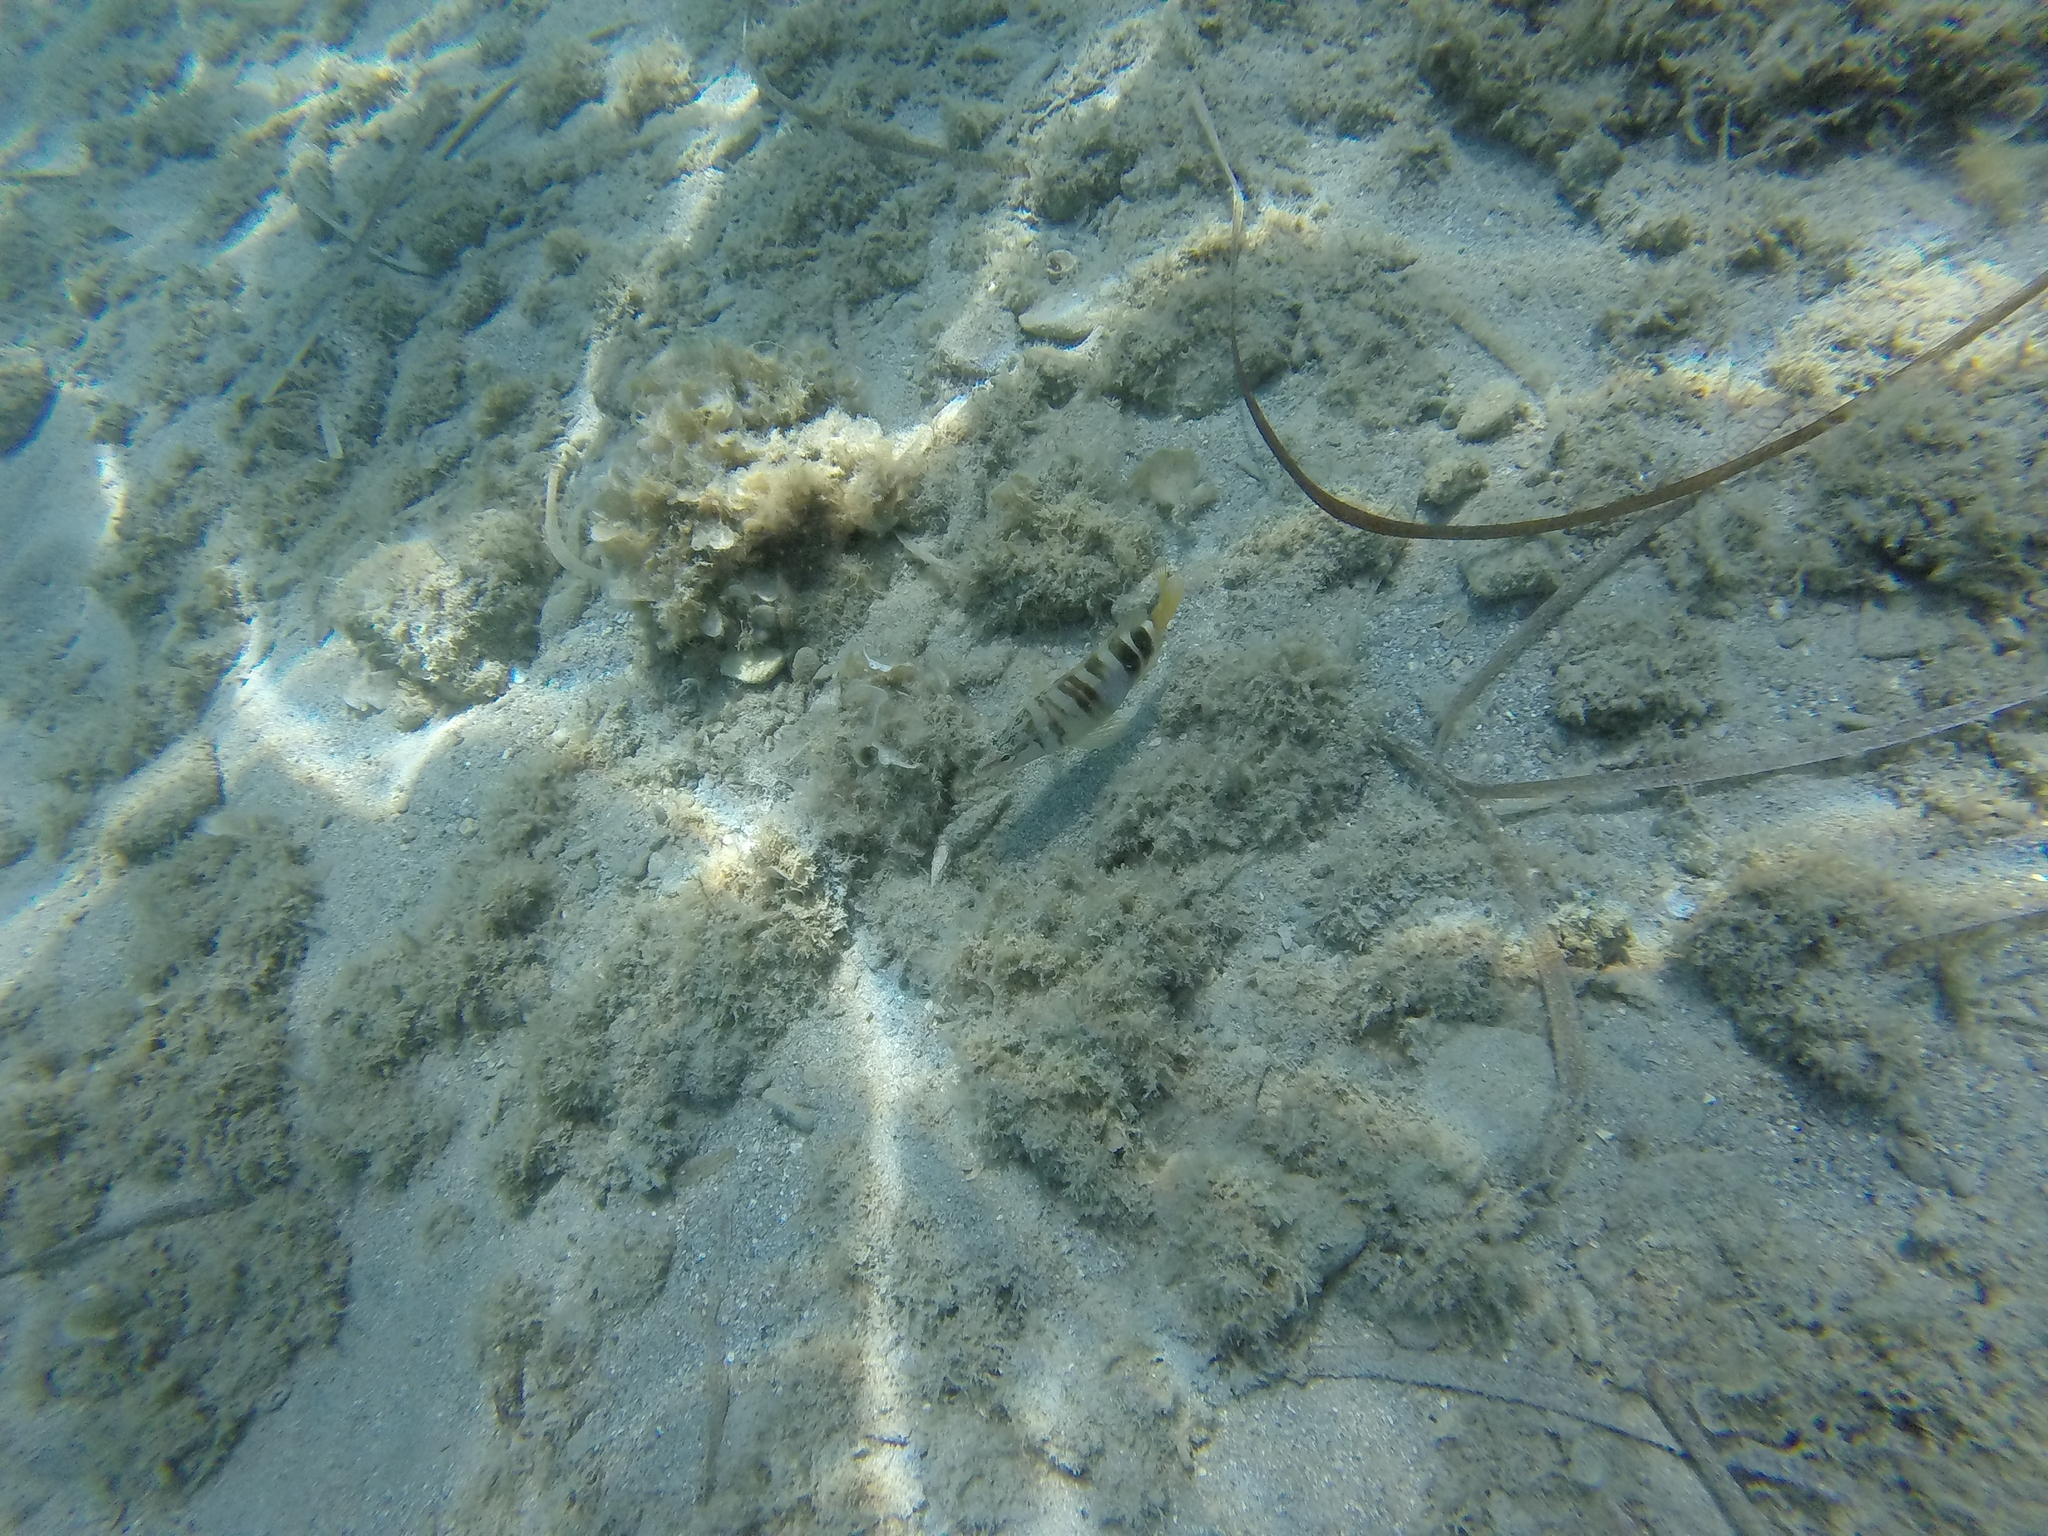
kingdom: Animalia
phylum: Chordata
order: Perciformes
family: Serranidae
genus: Serranus
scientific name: Serranus scriba
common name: Painted comber
